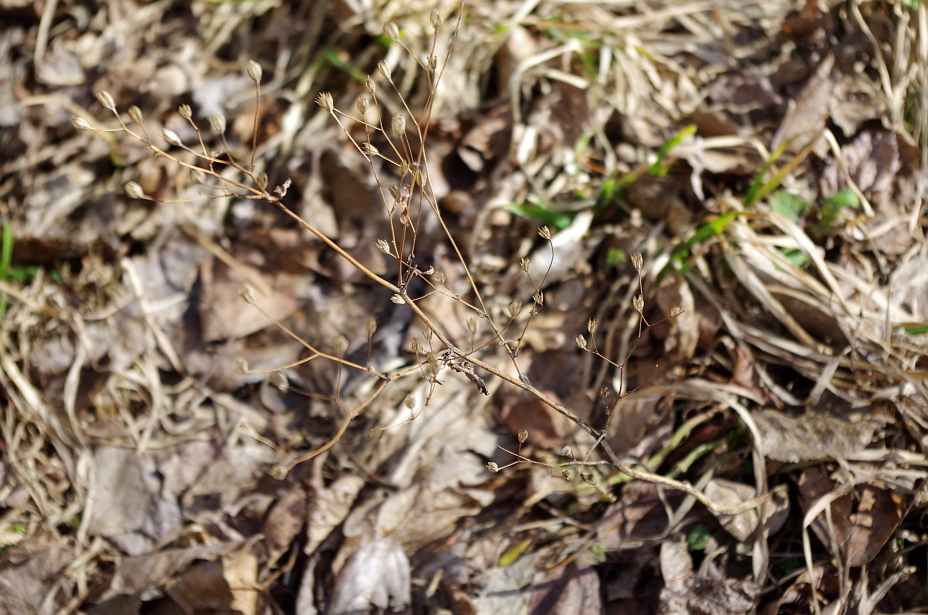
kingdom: Plantae
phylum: Tracheophyta
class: Magnoliopsida
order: Asterales
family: Asteraceae
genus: Lapsana
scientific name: Lapsana communis
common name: Nipplewort
